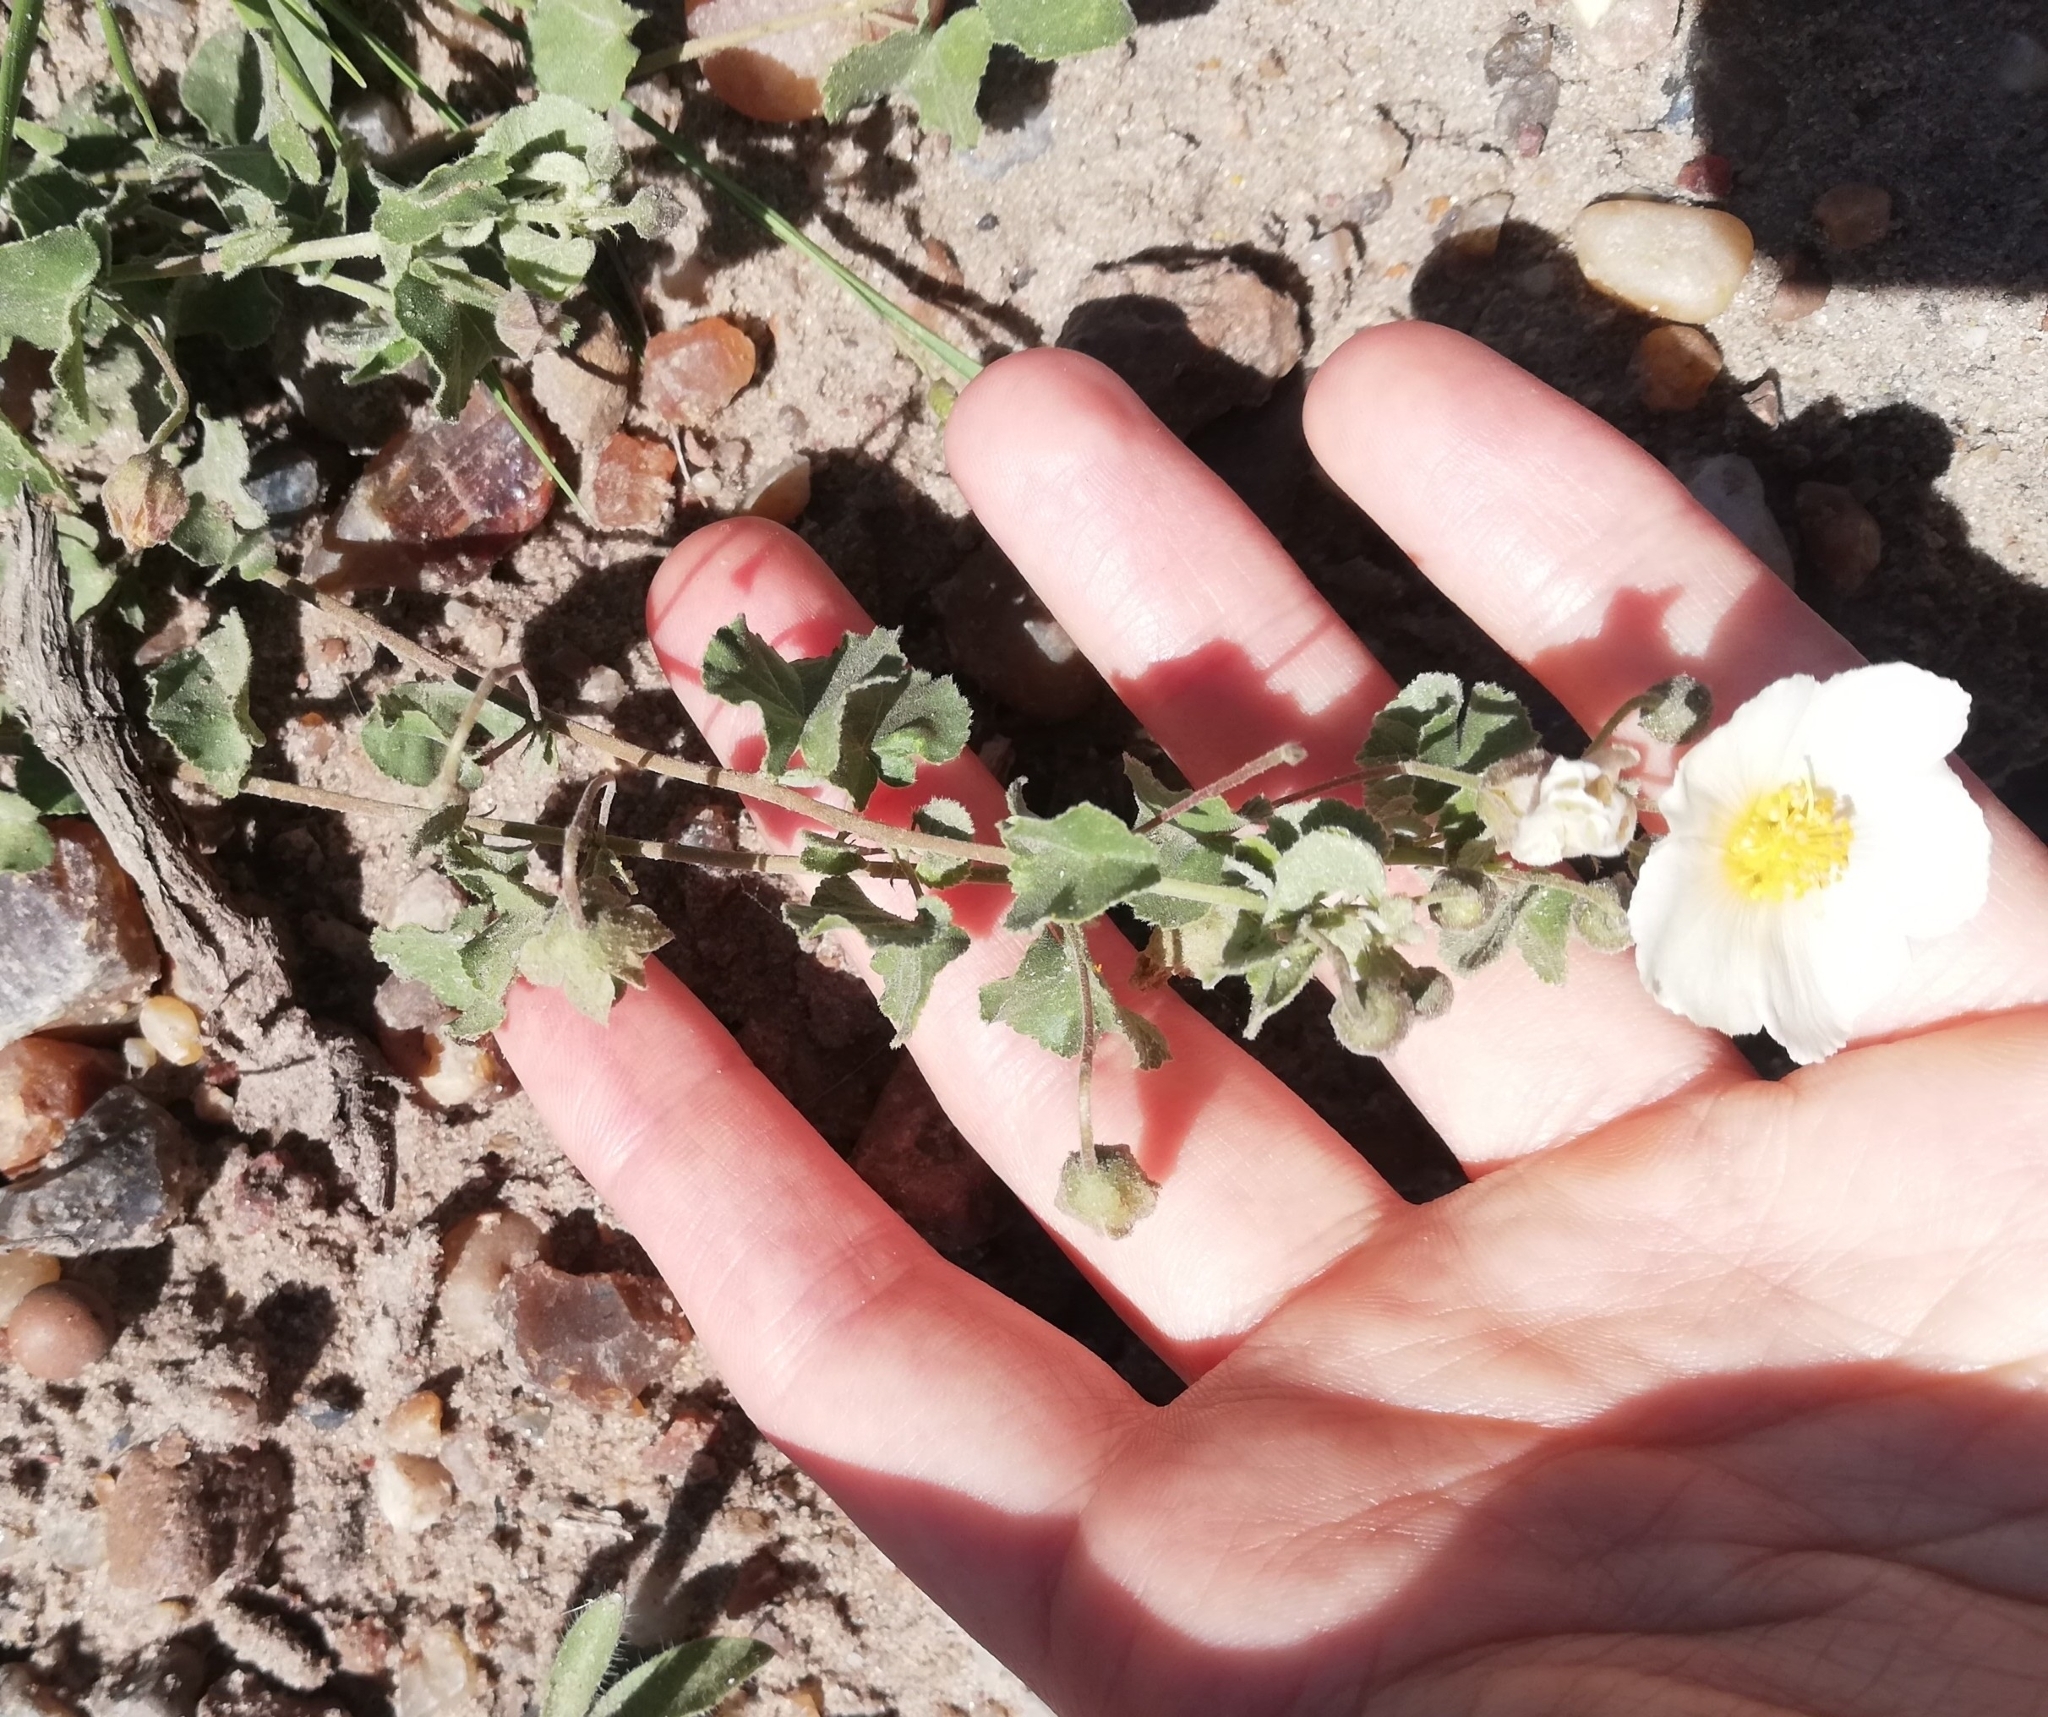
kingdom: Plantae
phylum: Tracheophyta
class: Magnoliopsida
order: Malvales
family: Malvaceae
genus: Wissadula
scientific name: Wissadula glechomifolia
